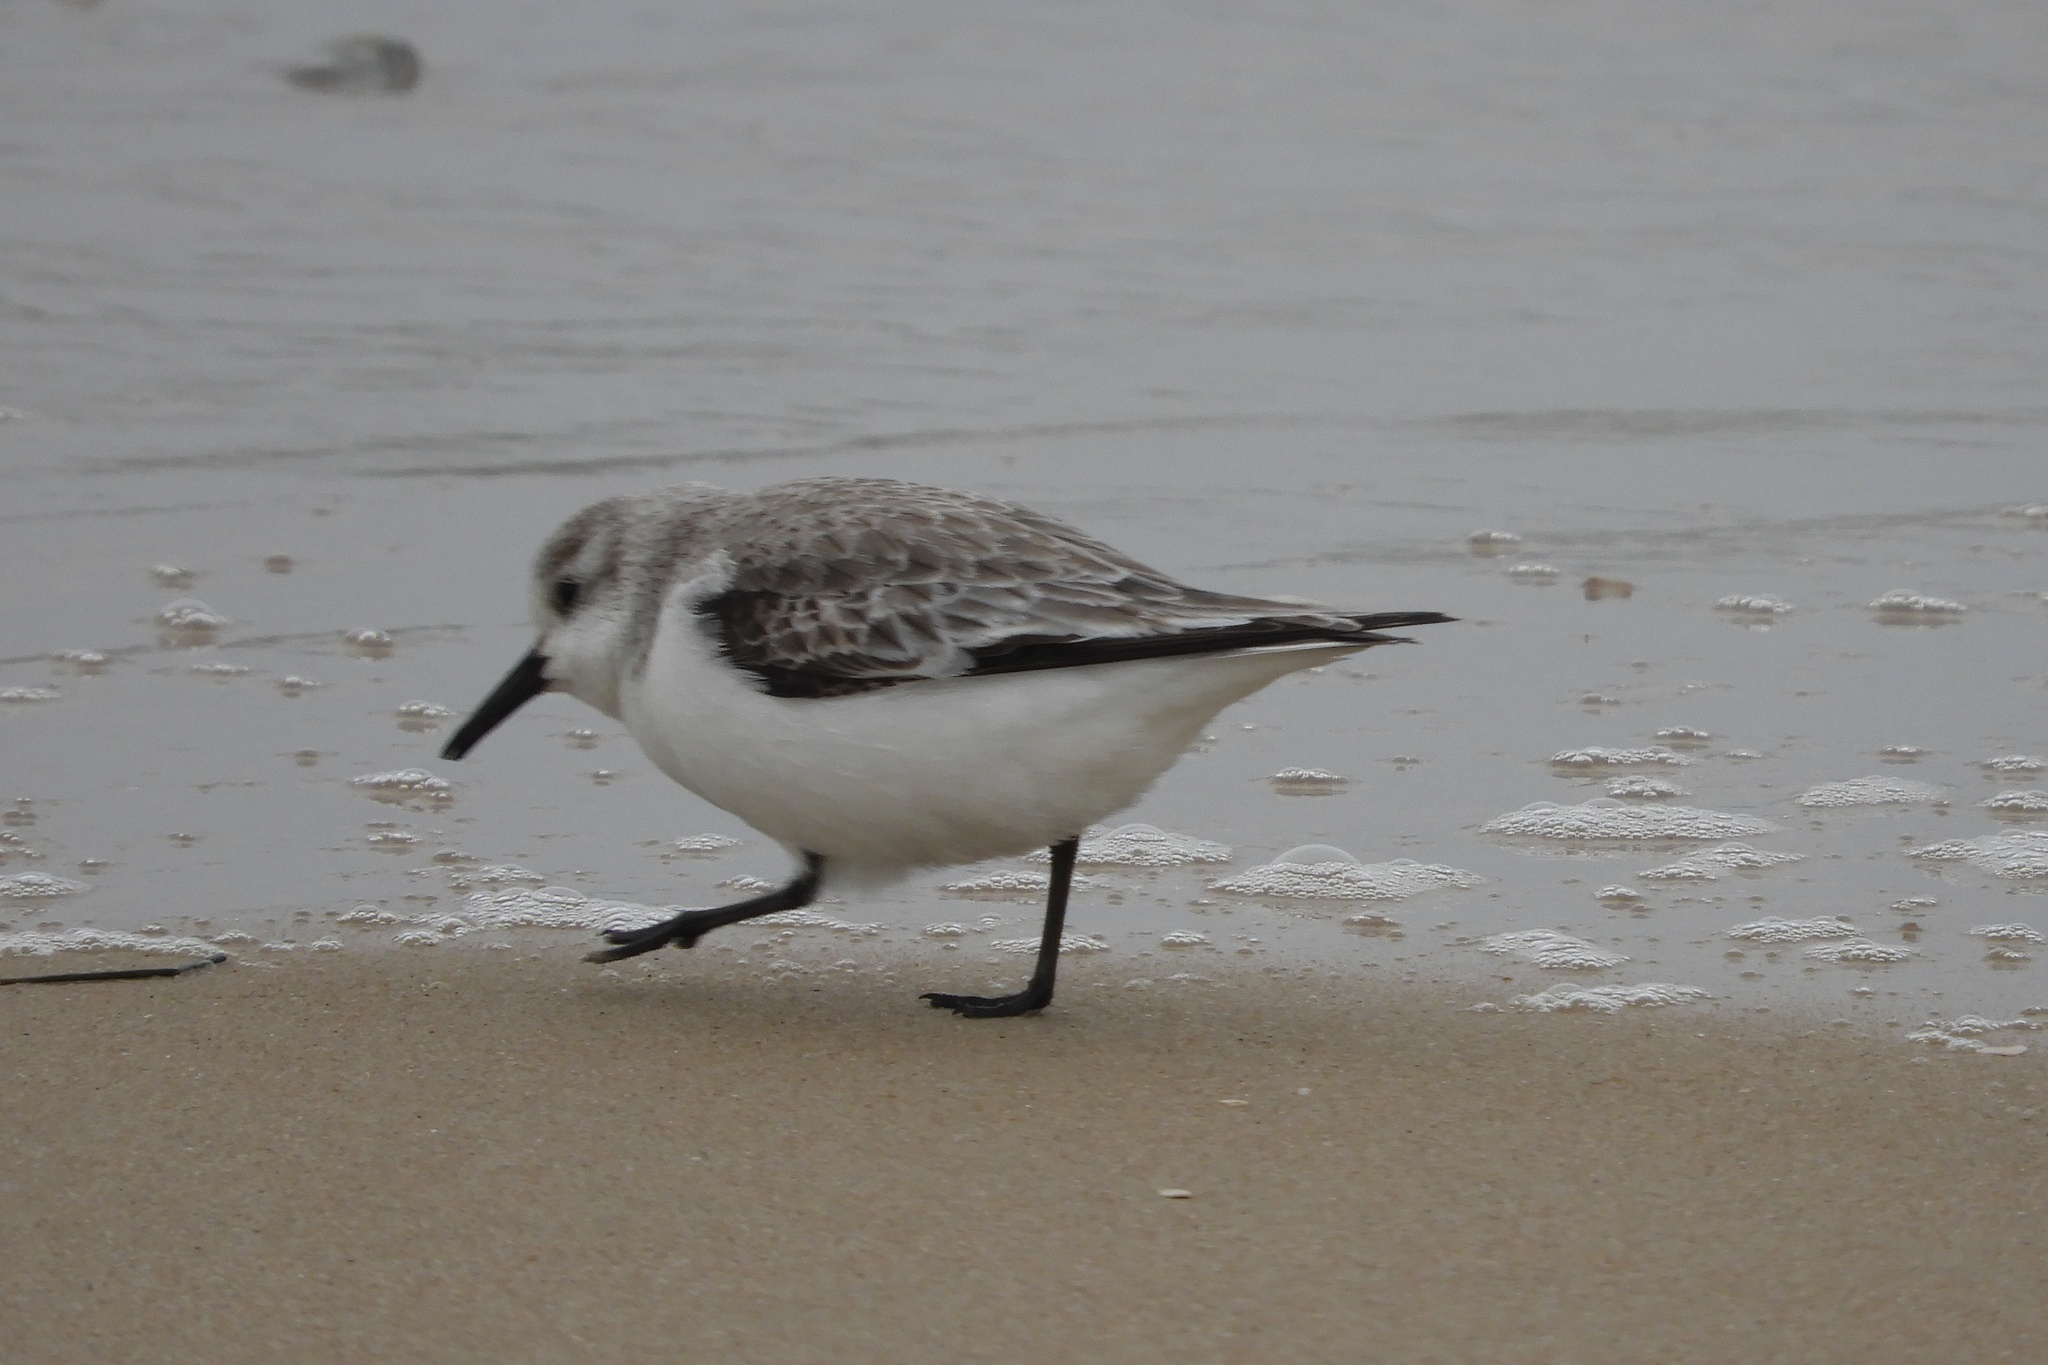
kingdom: Animalia
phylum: Chordata
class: Aves
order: Charadriiformes
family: Scolopacidae
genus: Calidris
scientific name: Calidris alba
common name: Sanderling
